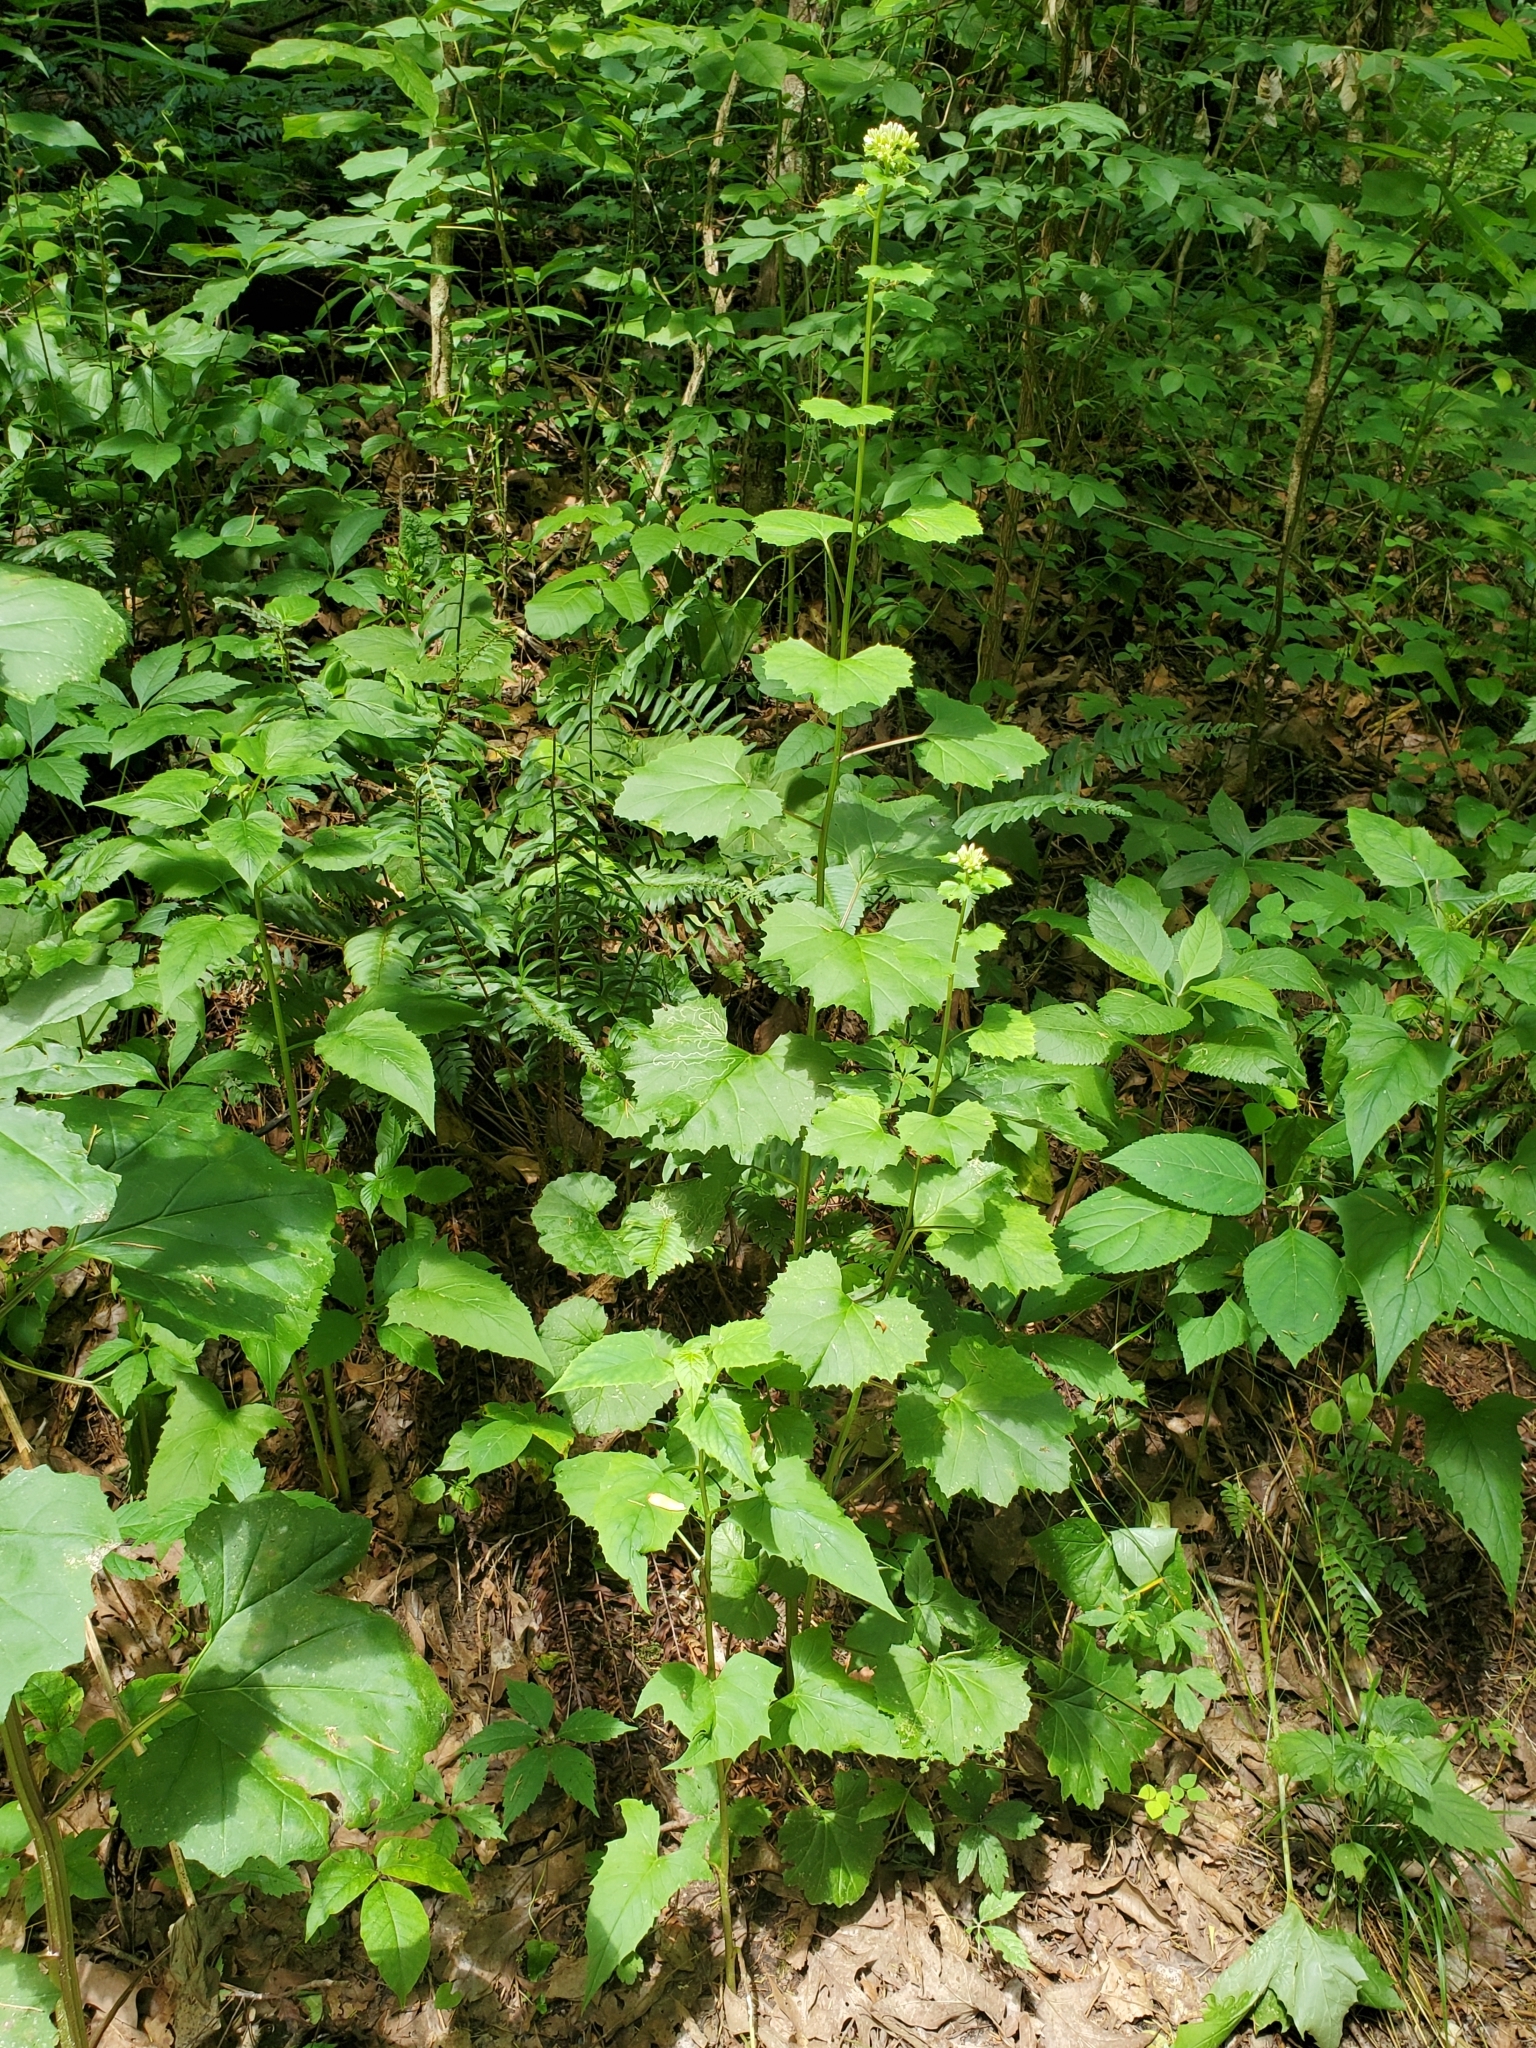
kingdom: Plantae
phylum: Tracheophyta
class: Magnoliopsida
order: Asterales
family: Asteraceae
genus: Arnoglossum
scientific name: Arnoglossum reniforme
